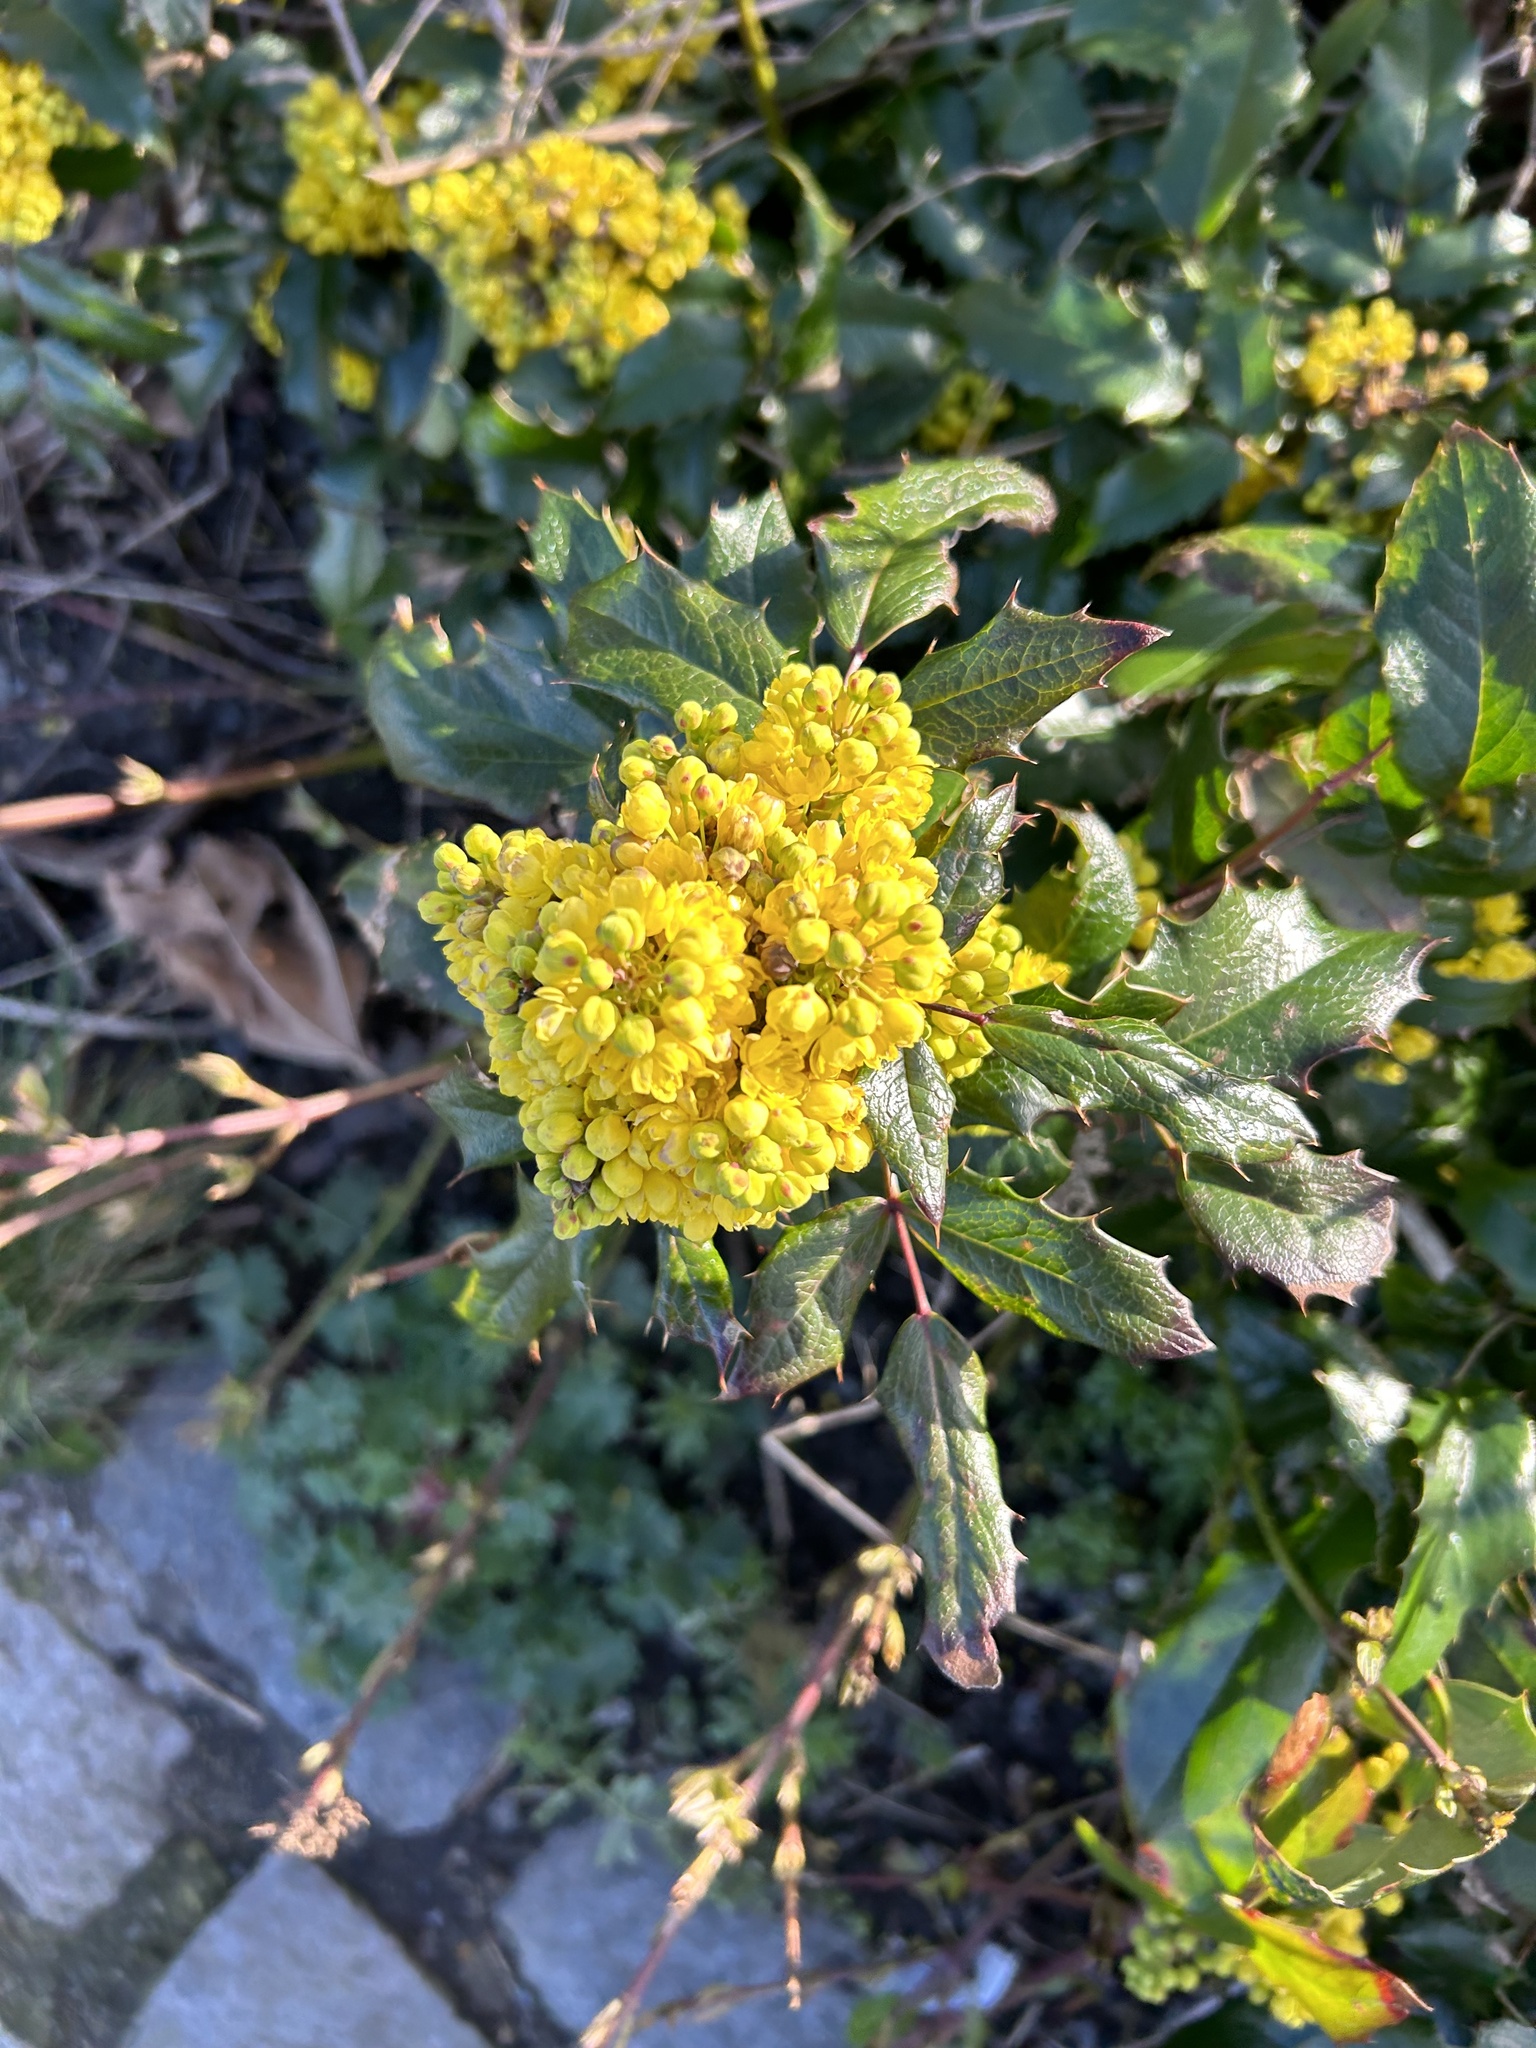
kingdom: Plantae
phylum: Tracheophyta
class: Magnoliopsida
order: Ranunculales
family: Berberidaceae
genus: Mahonia
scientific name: Mahonia aquifolium
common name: Oregon-grape
